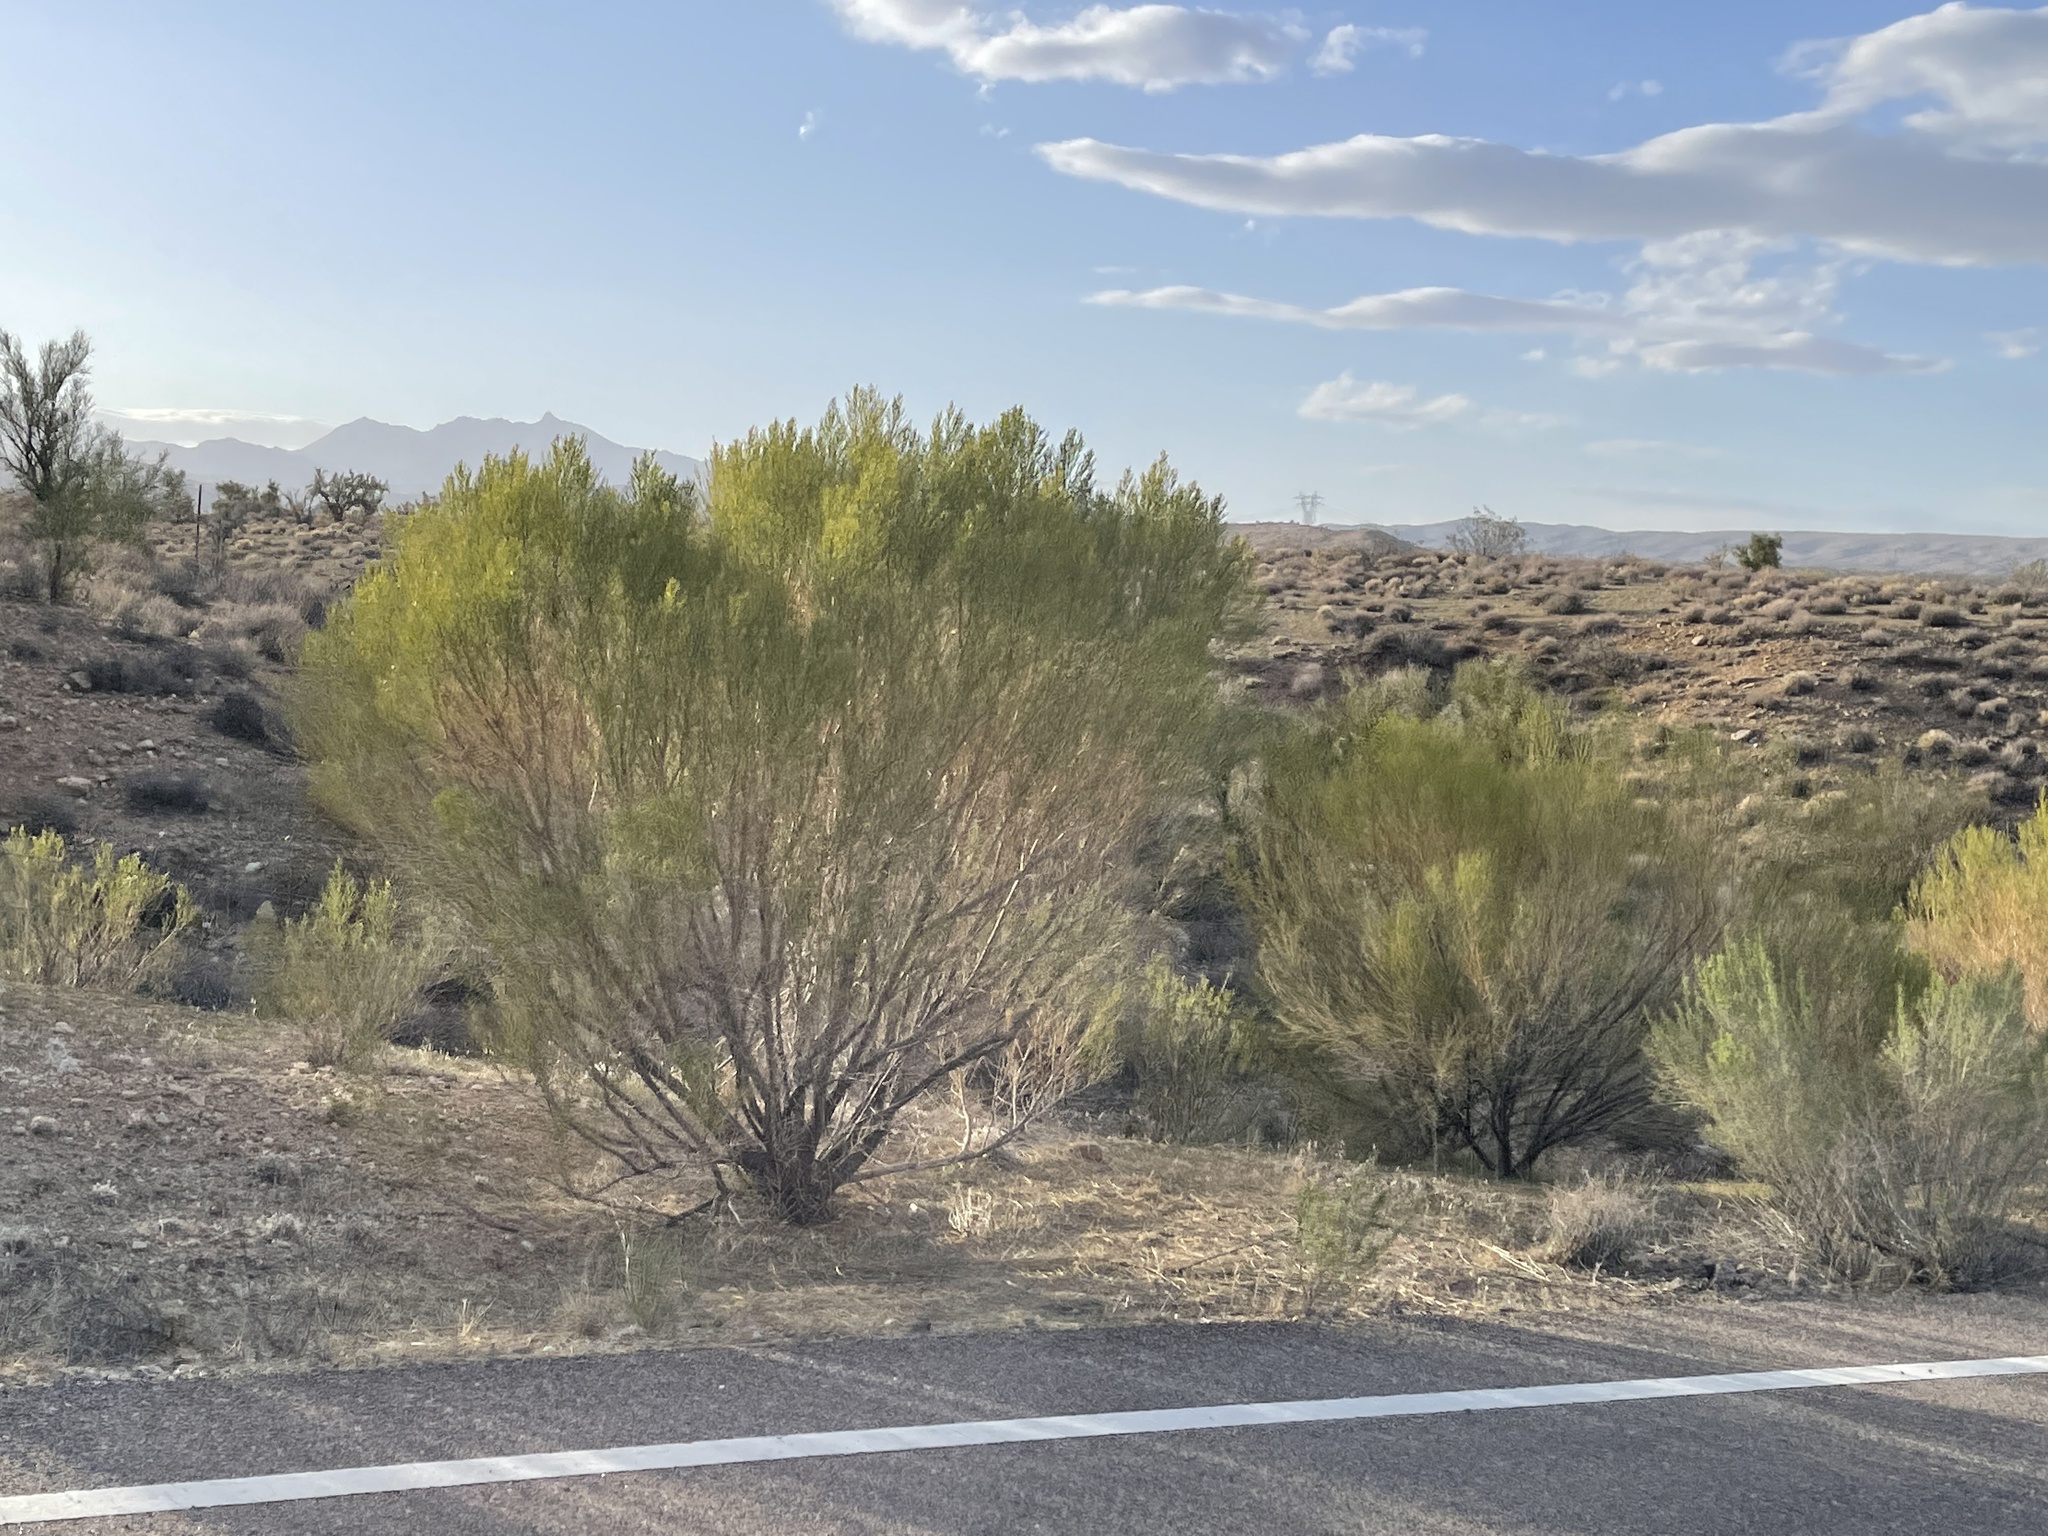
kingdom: Plantae
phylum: Tracheophyta
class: Magnoliopsida
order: Asterales
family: Asteraceae
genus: Baccharis
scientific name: Baccharis sarothroides
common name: Desert-broom
